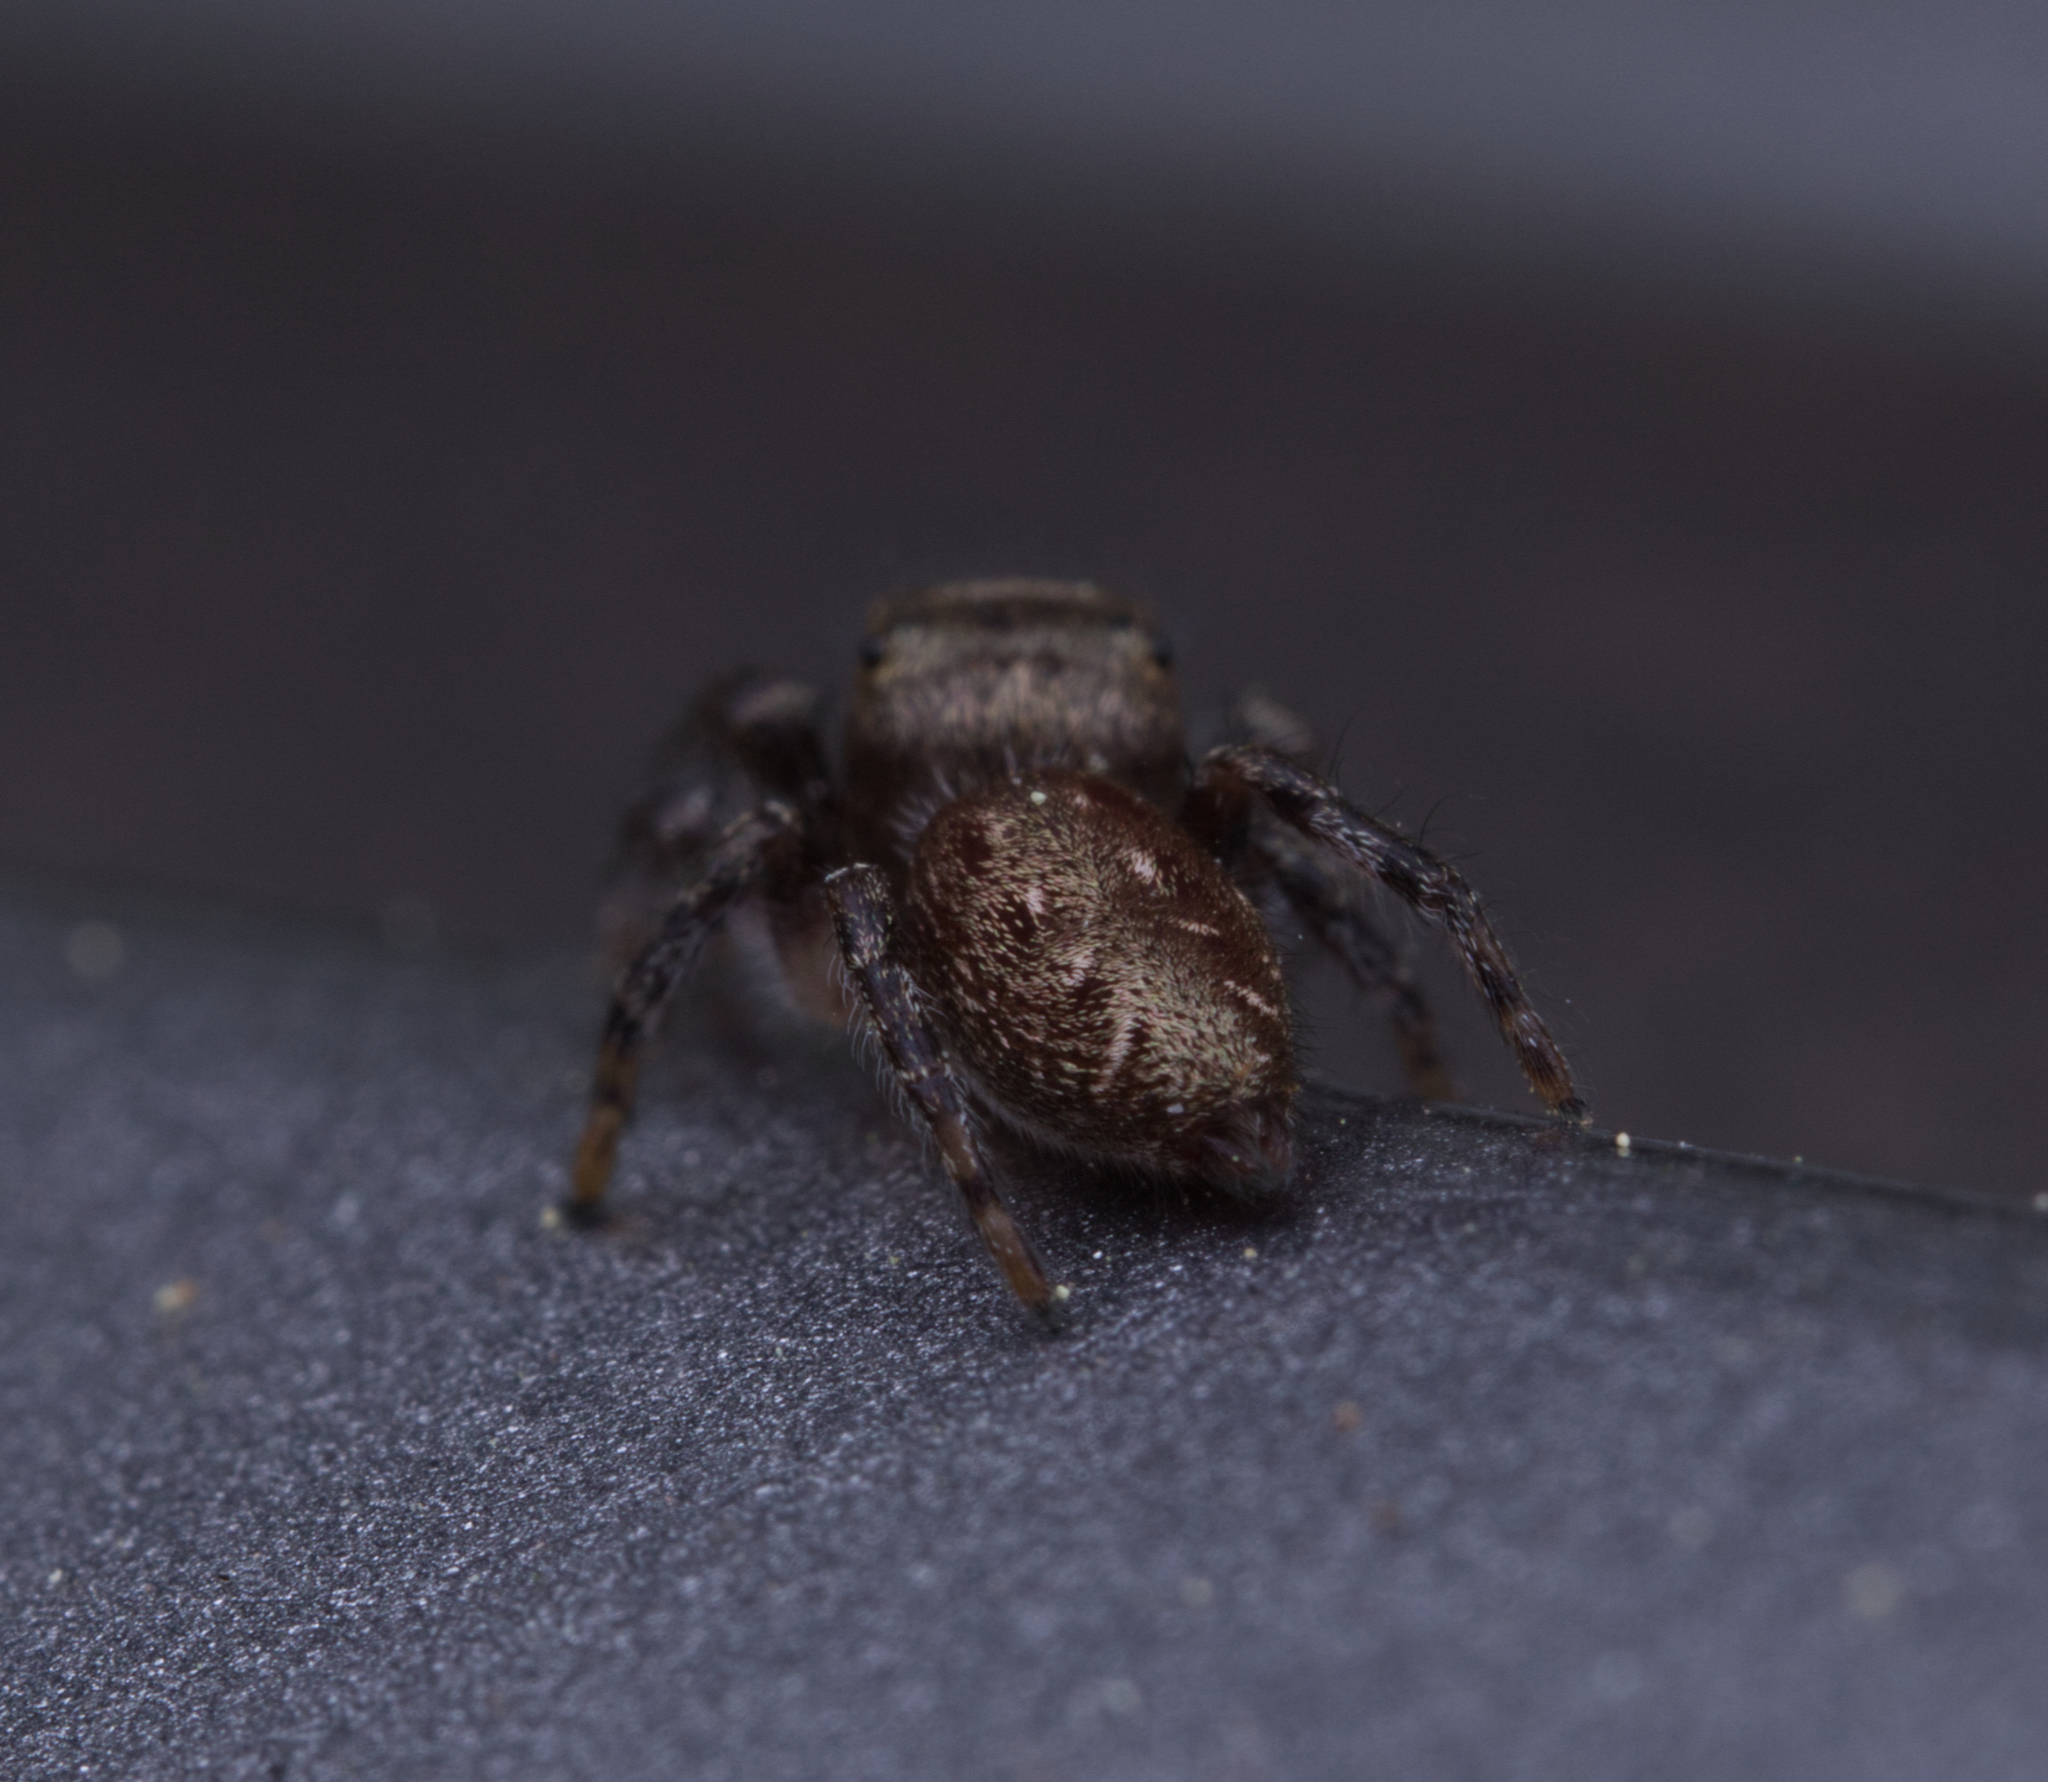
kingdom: Animalia
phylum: Arthropoda
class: Arachnida
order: Araneae
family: Salticidae
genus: Eris
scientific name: Eris militaris
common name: Bronze jumper
